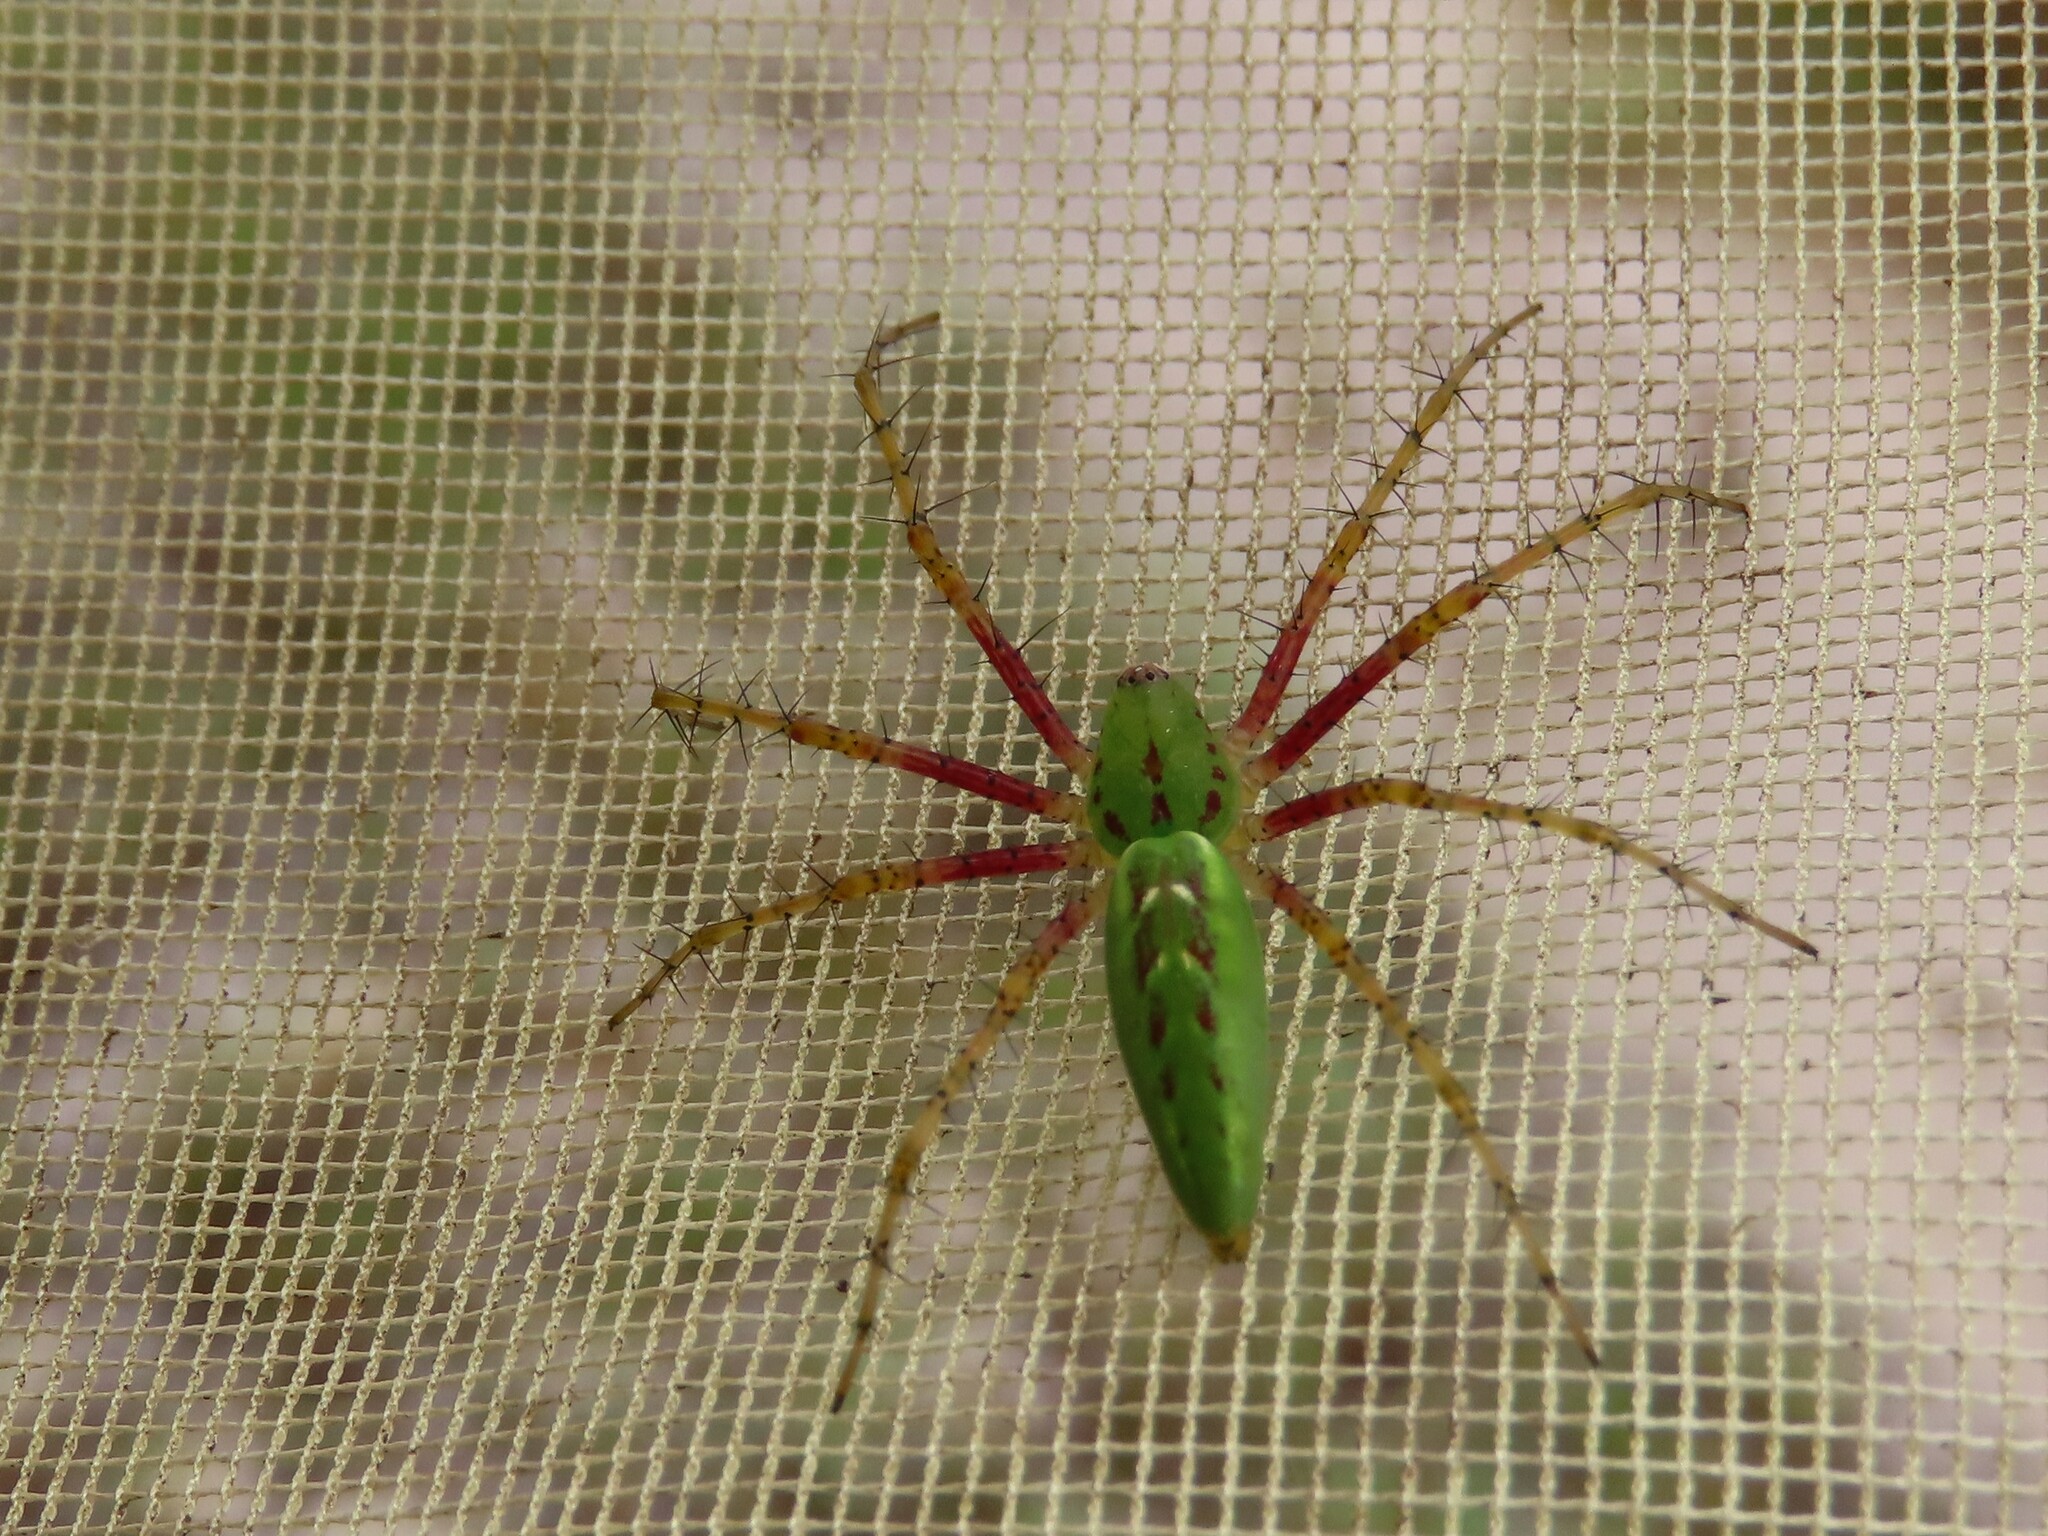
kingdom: Animalia
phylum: Arthropoda
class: Arachnida
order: Araneae
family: Oxyopidae
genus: Peucetia
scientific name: Peucetia viridans
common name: Lynx spiders
